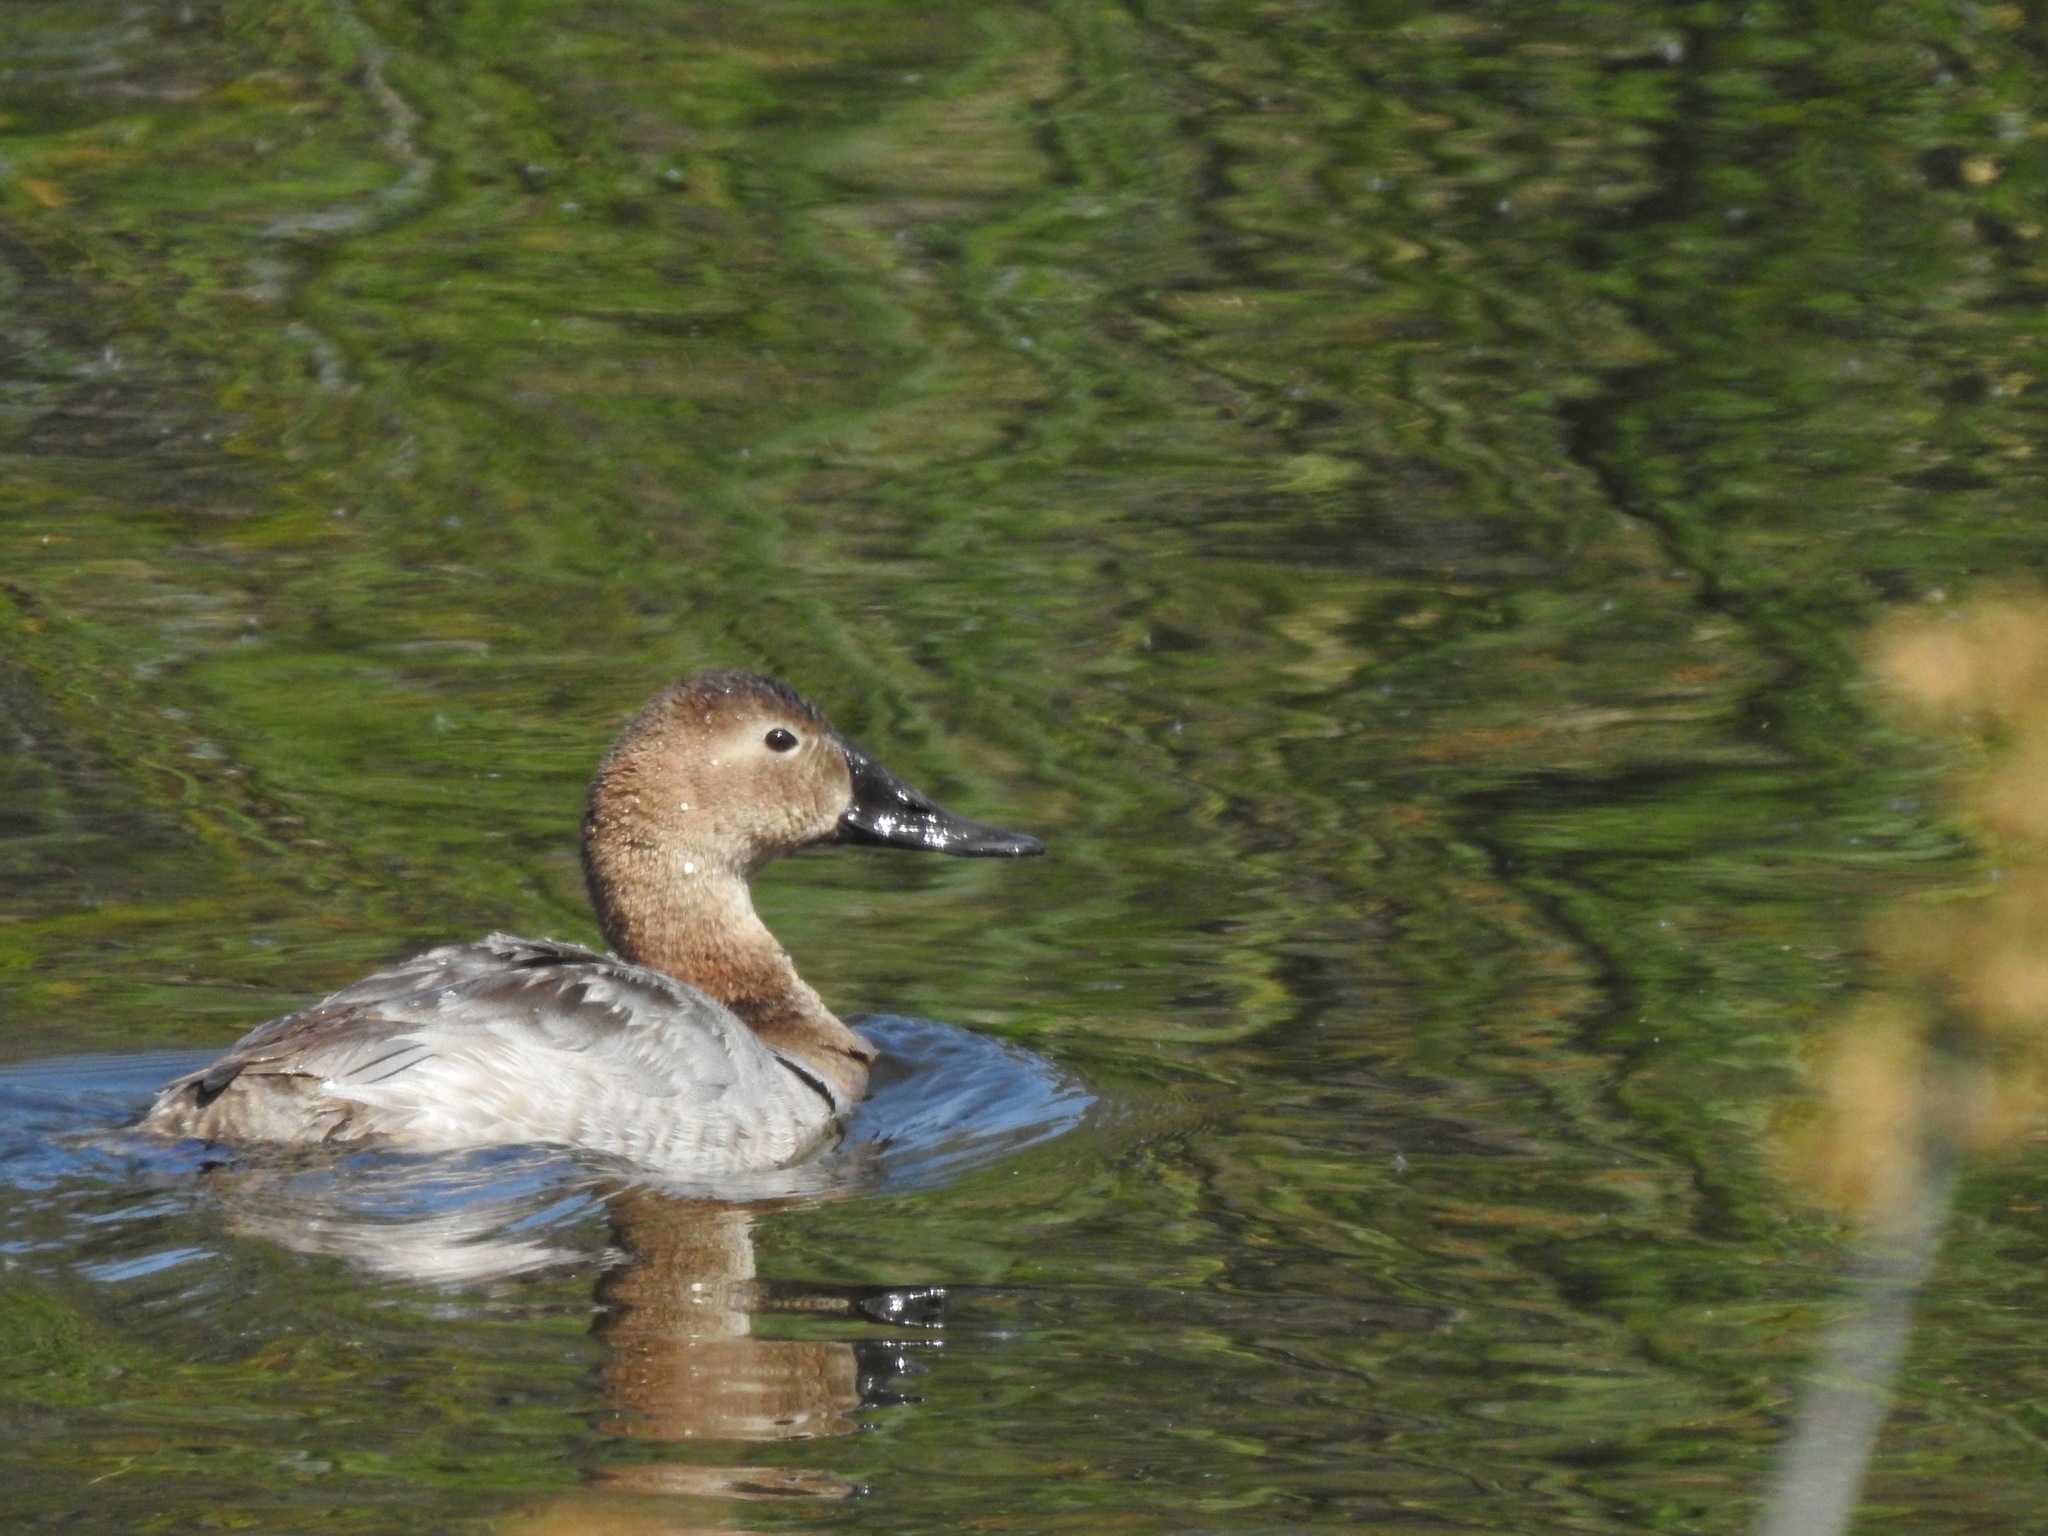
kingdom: Animalia
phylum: Chordata
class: Aves
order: Anseriformes
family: Anatidae
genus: Aythya
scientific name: Aythya valisineria
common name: Canvasback
